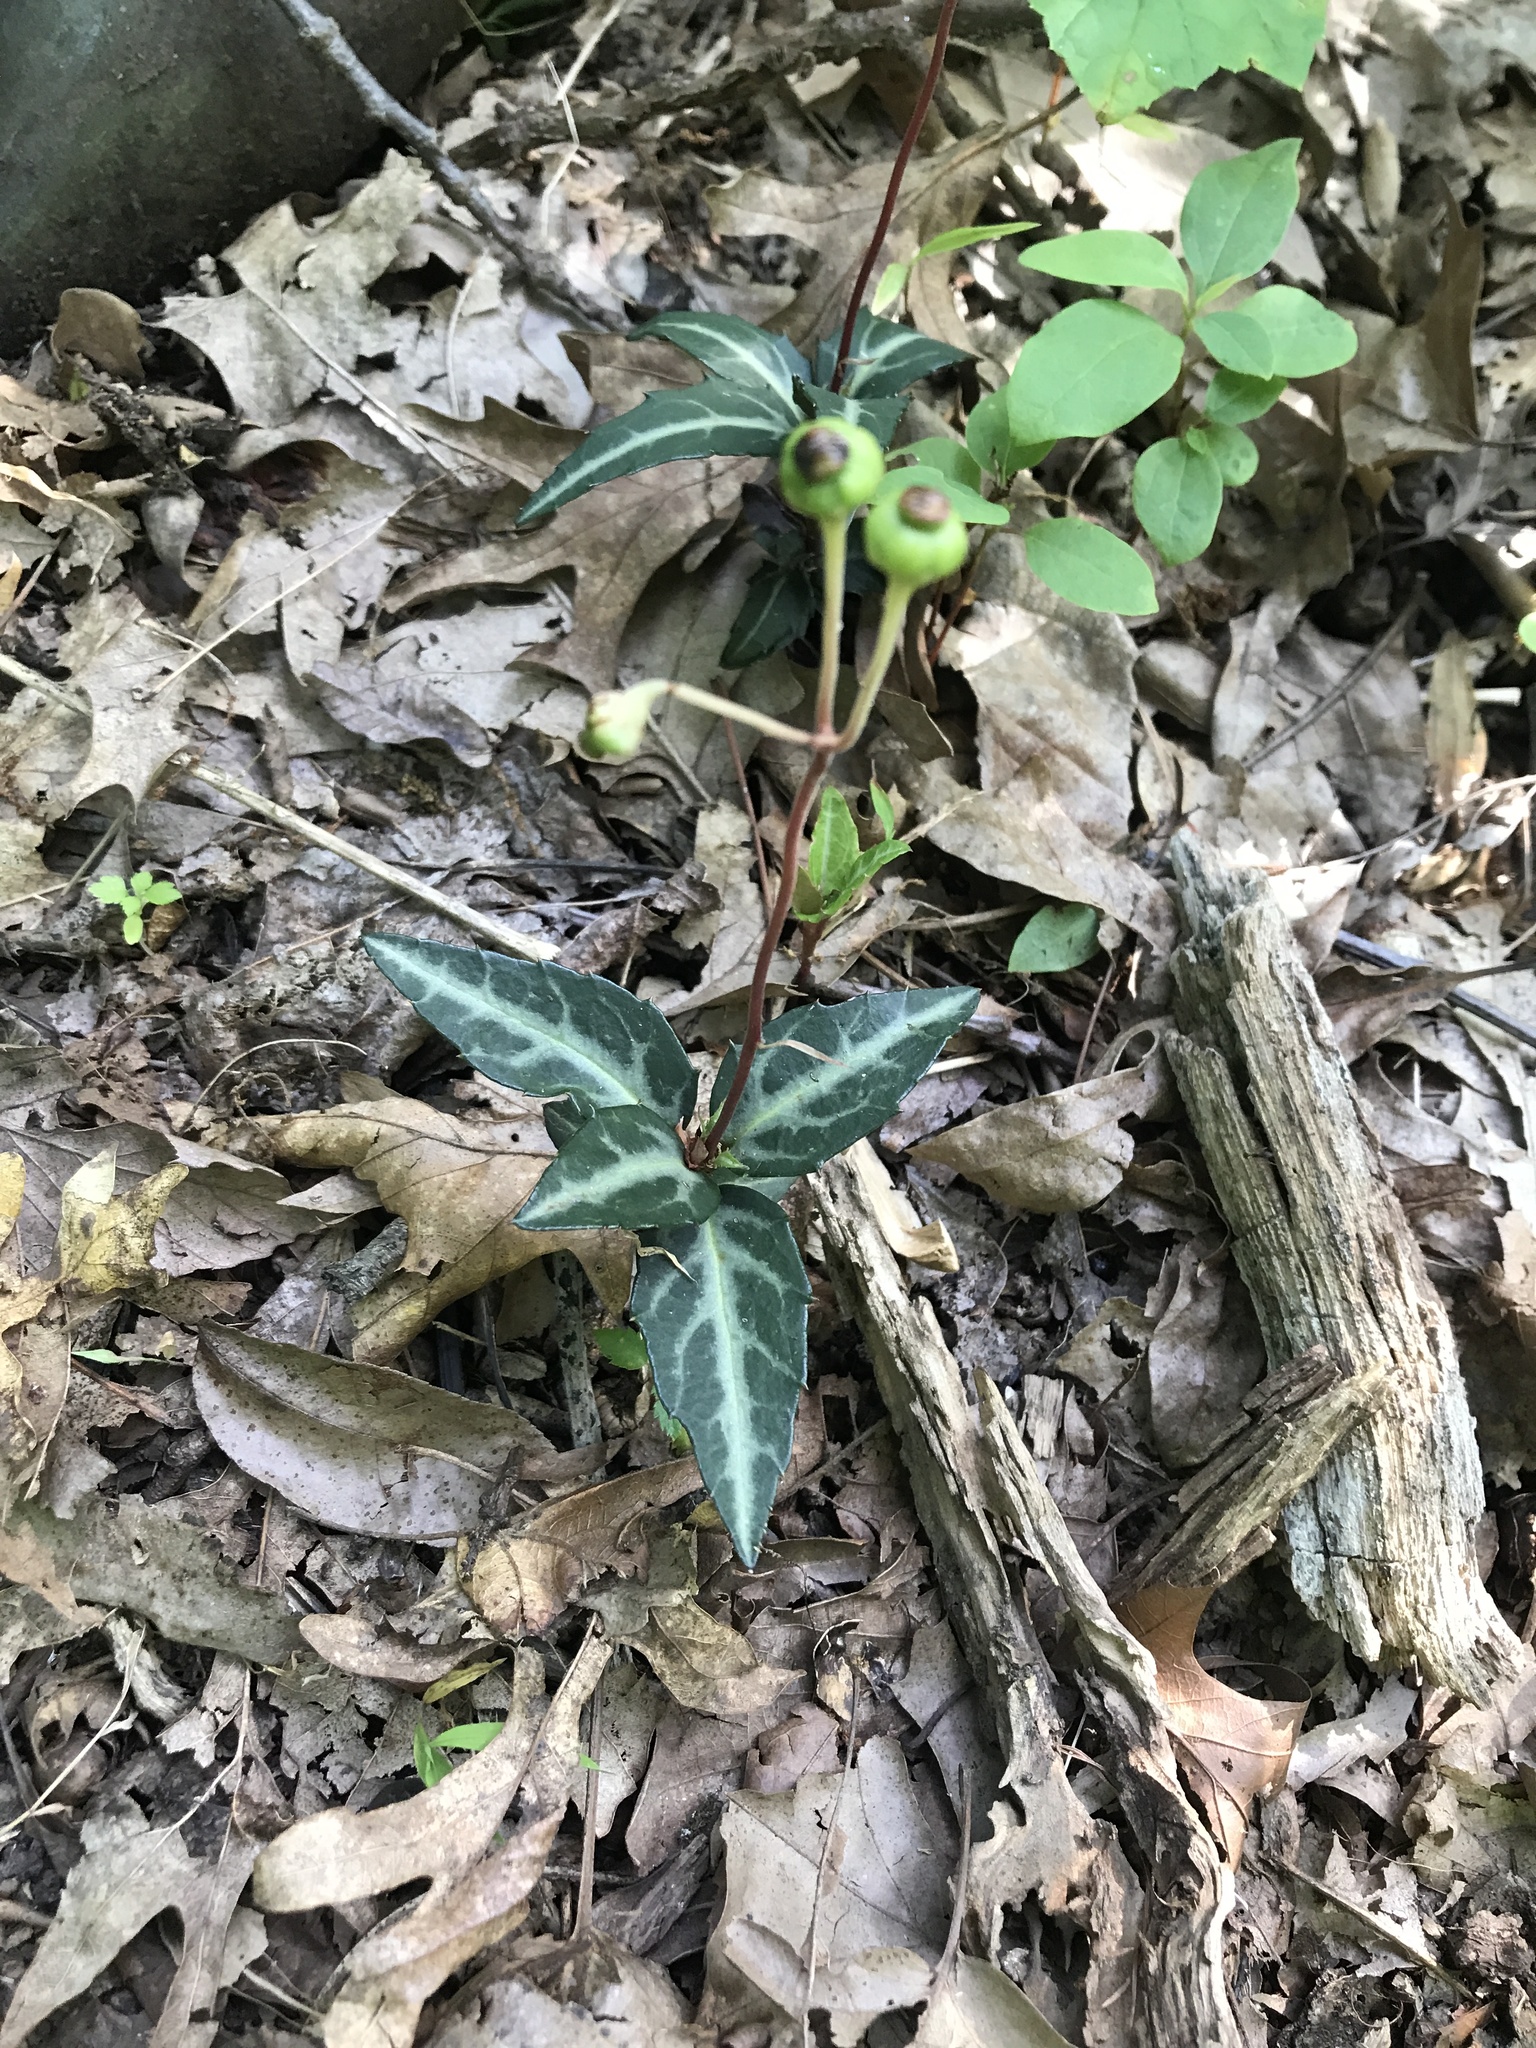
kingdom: Plantae
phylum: Tracheophyta
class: Magnoliopsida
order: Ericales
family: Ericaceae
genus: Chimaphila
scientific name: Chimaphila maculata
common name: Spotted pipsissewa
